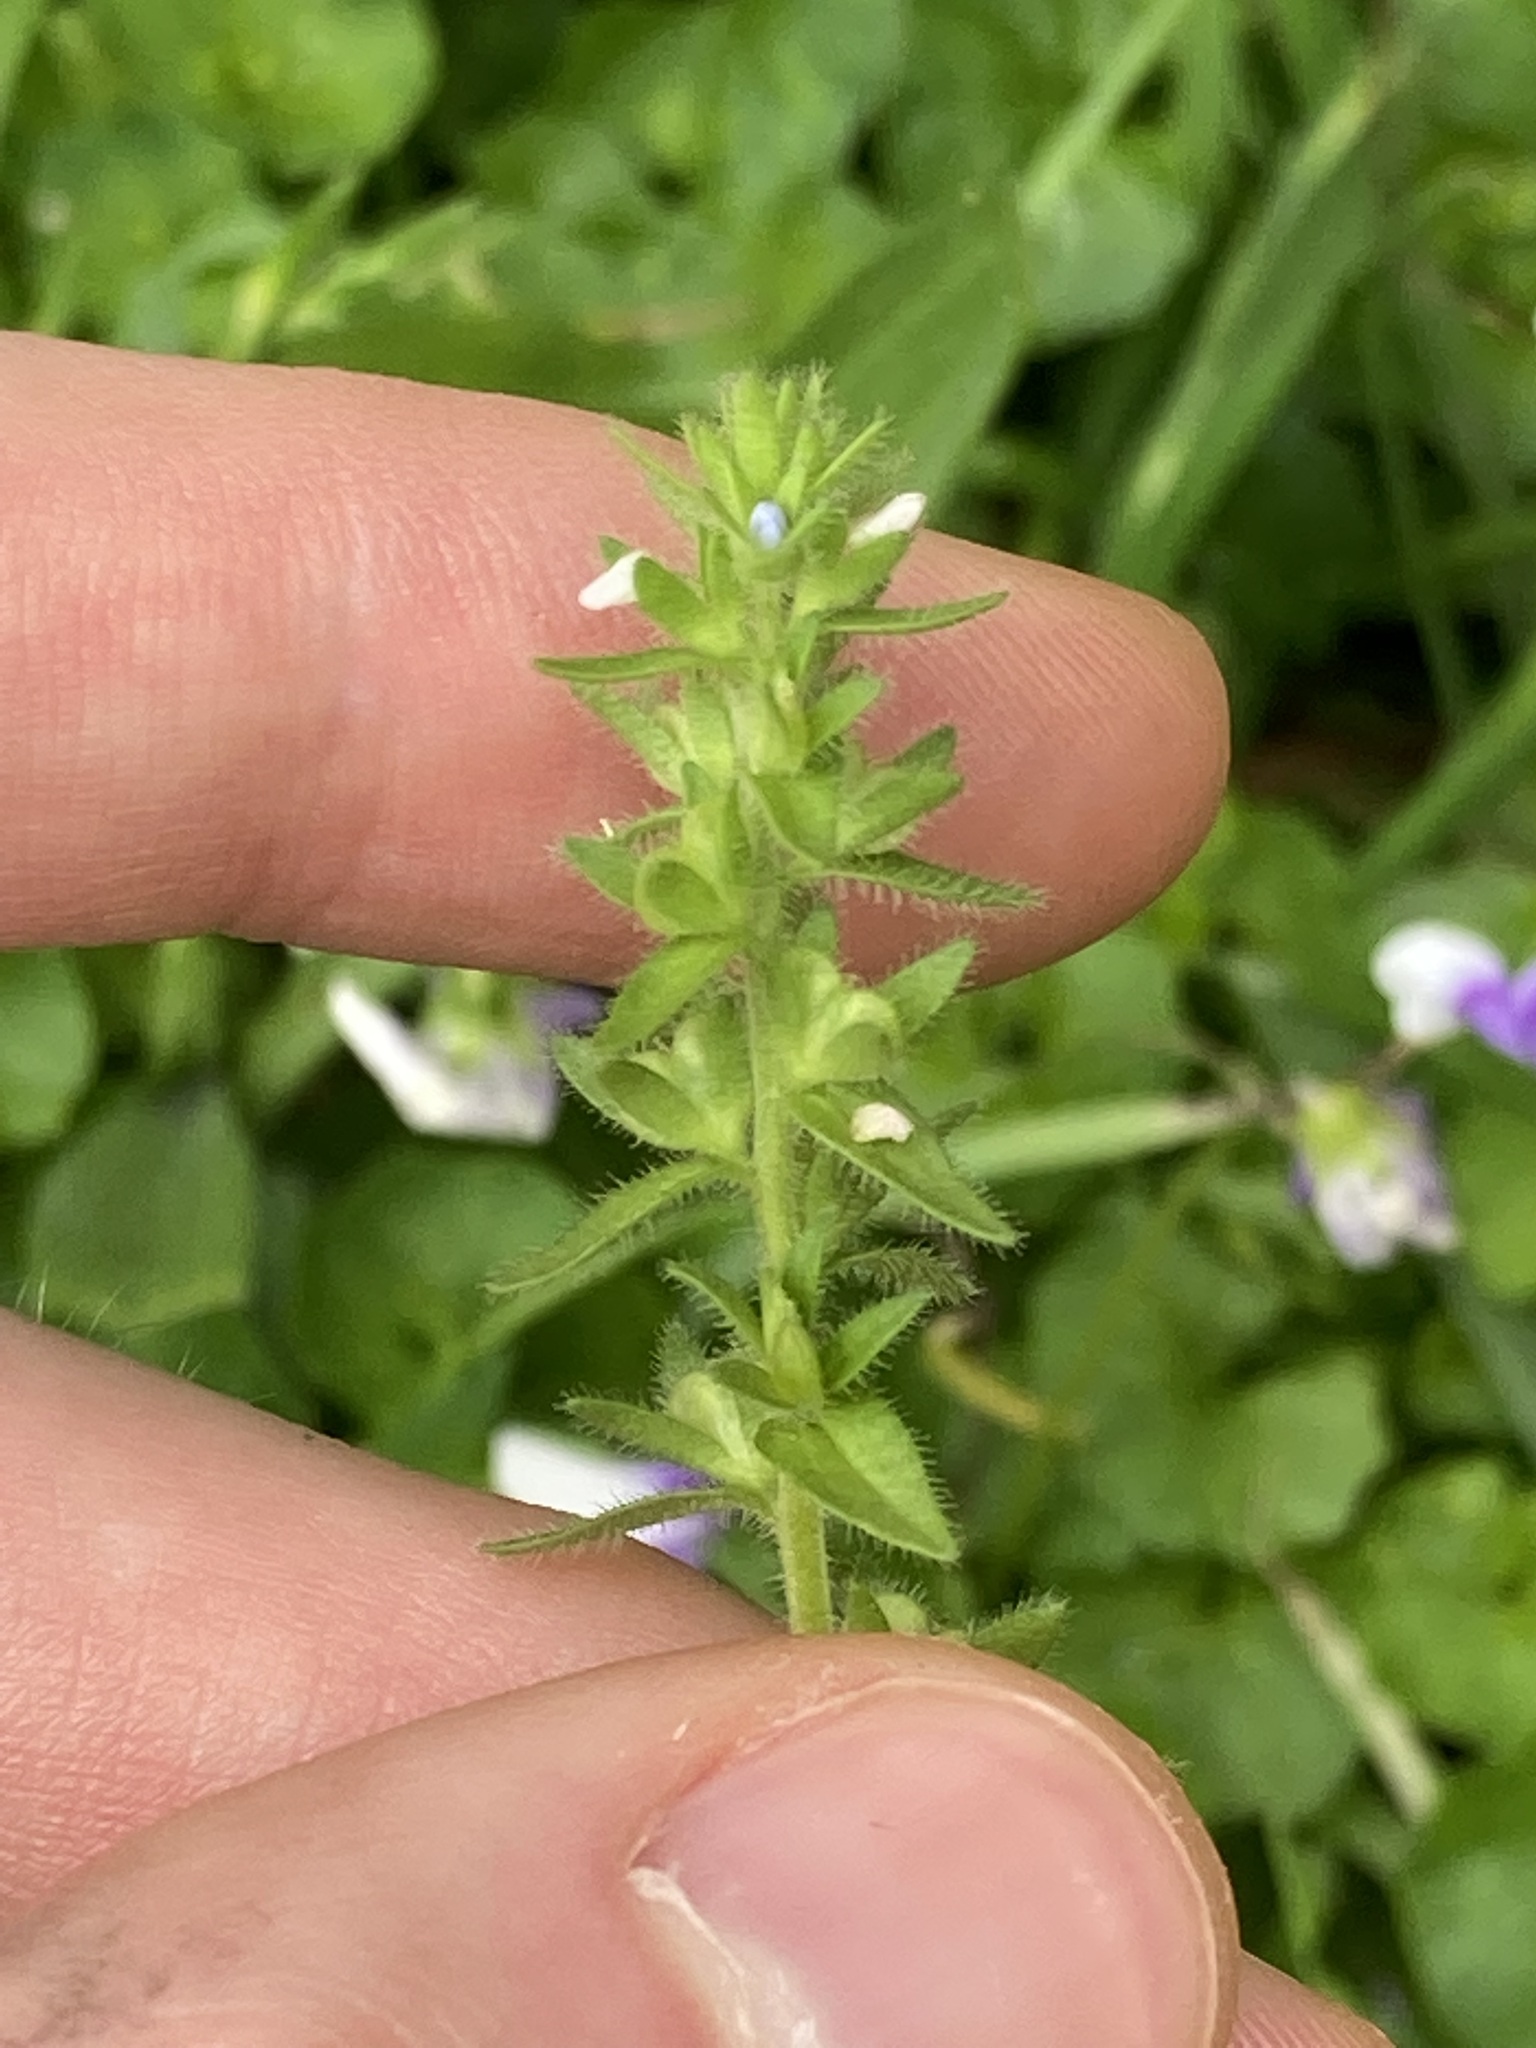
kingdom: Plantae
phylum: Tracheophyta
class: Magnoliopsida
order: Lamiales
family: Plantaginaceae
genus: Veronica
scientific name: Veronica arvensis
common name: Corn speedwell
